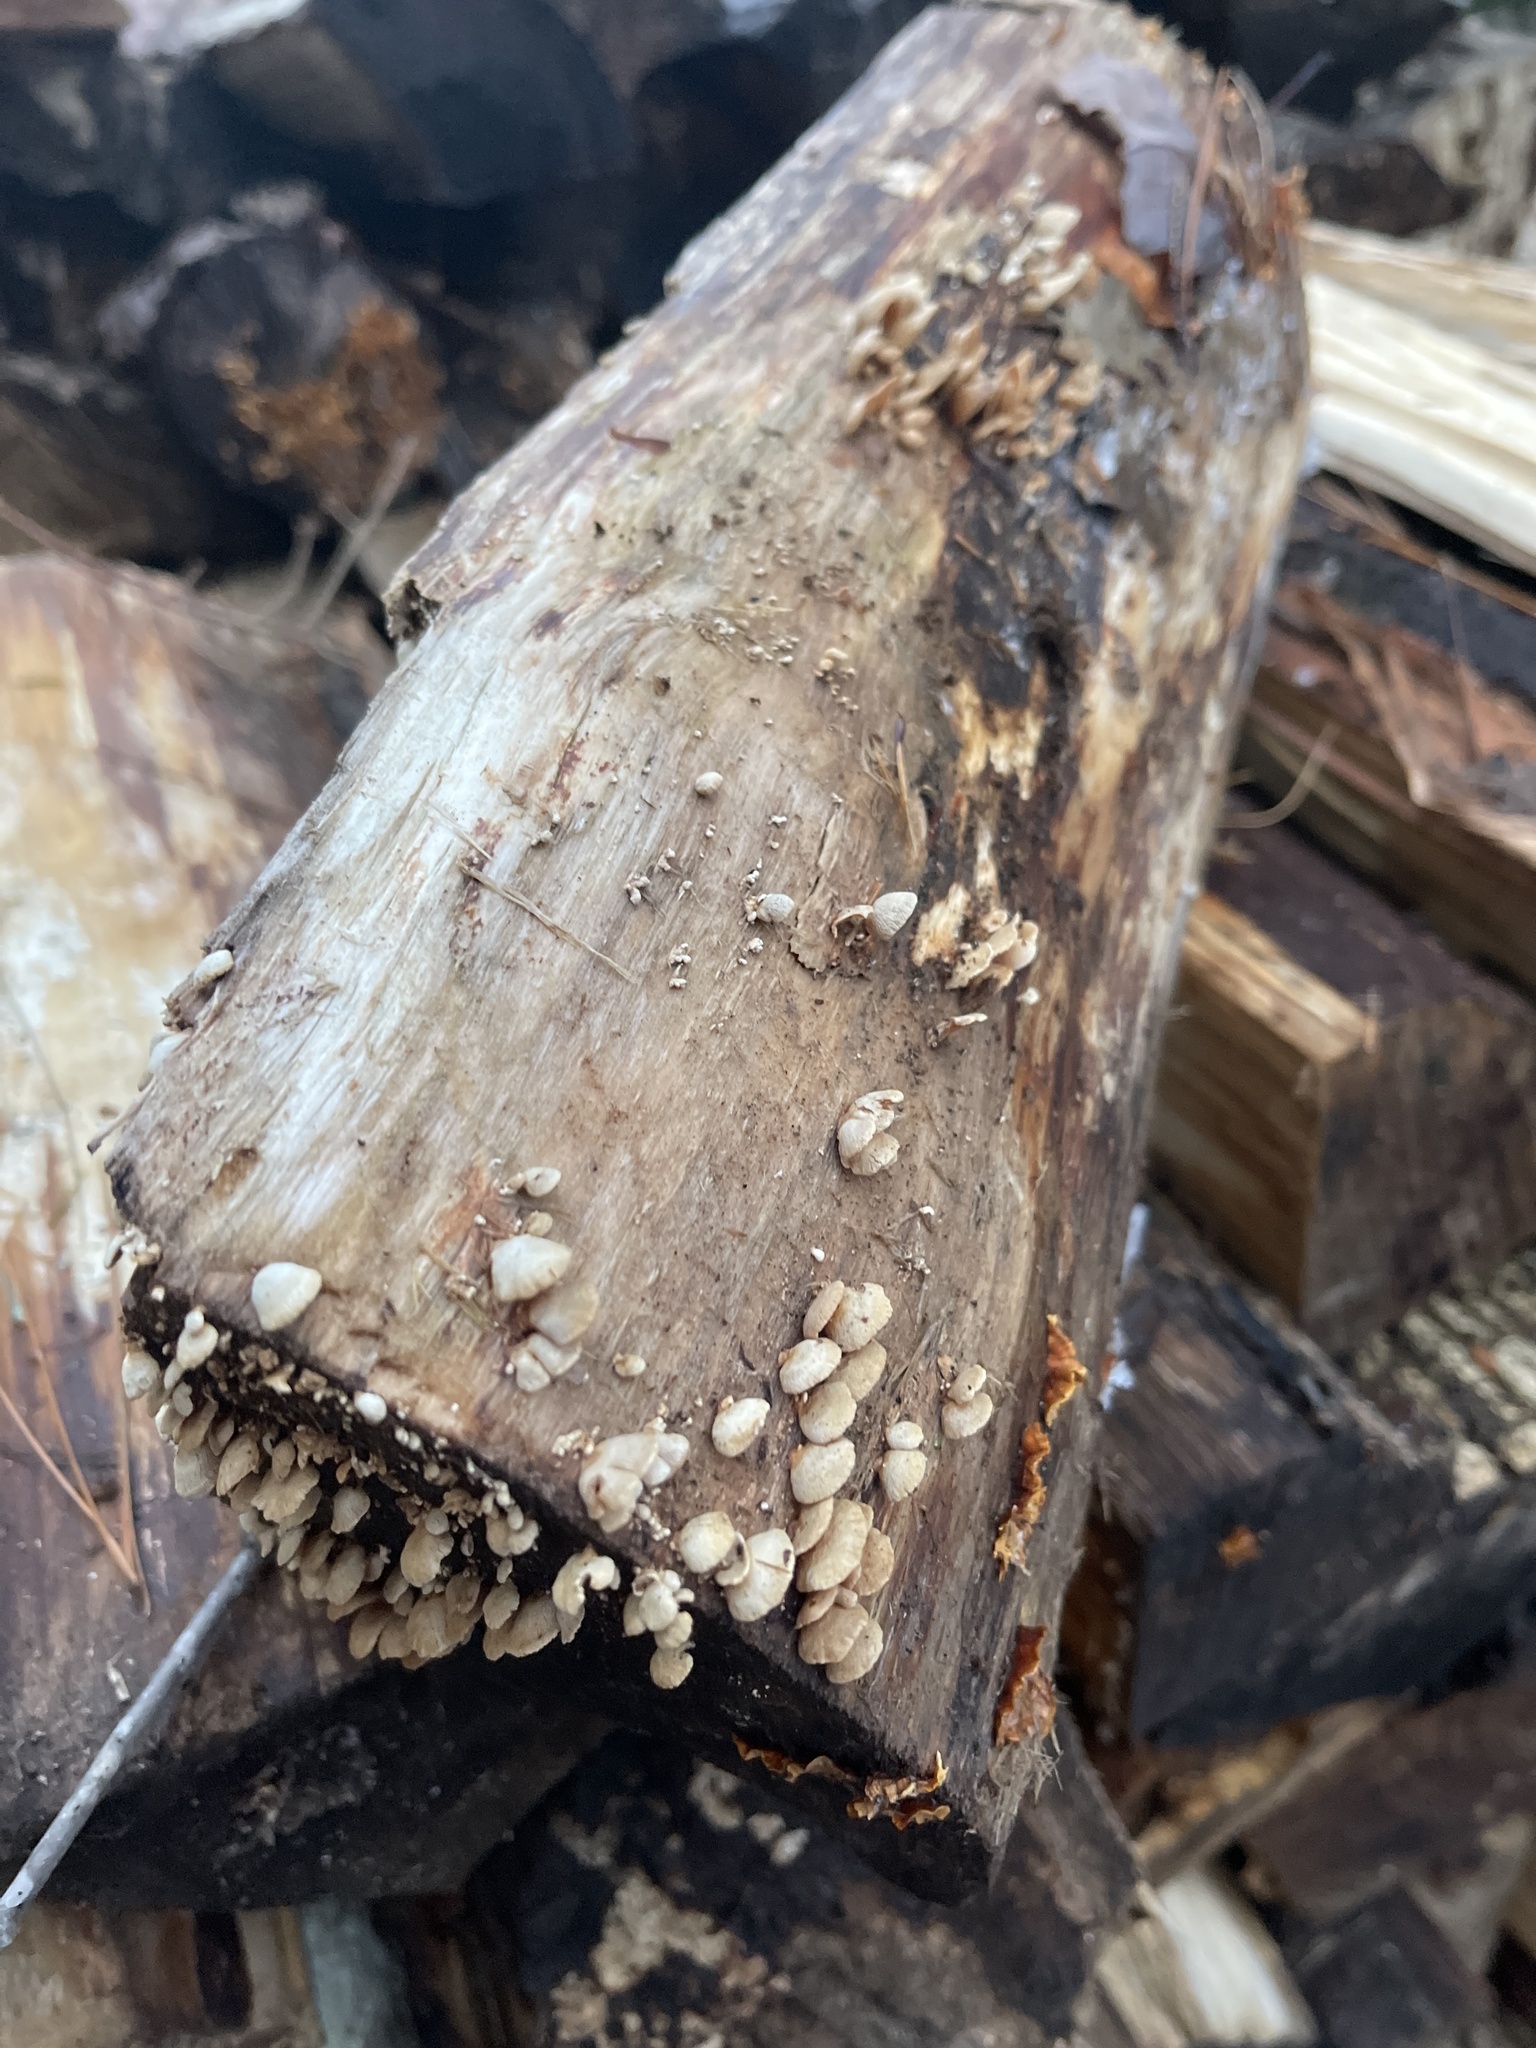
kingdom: Fungi
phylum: Basidiomycota
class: Agaricomycetes
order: Agaricales
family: Mycenaceae
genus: Panellus
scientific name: Panellus stipticus
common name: Bitter oysterling
